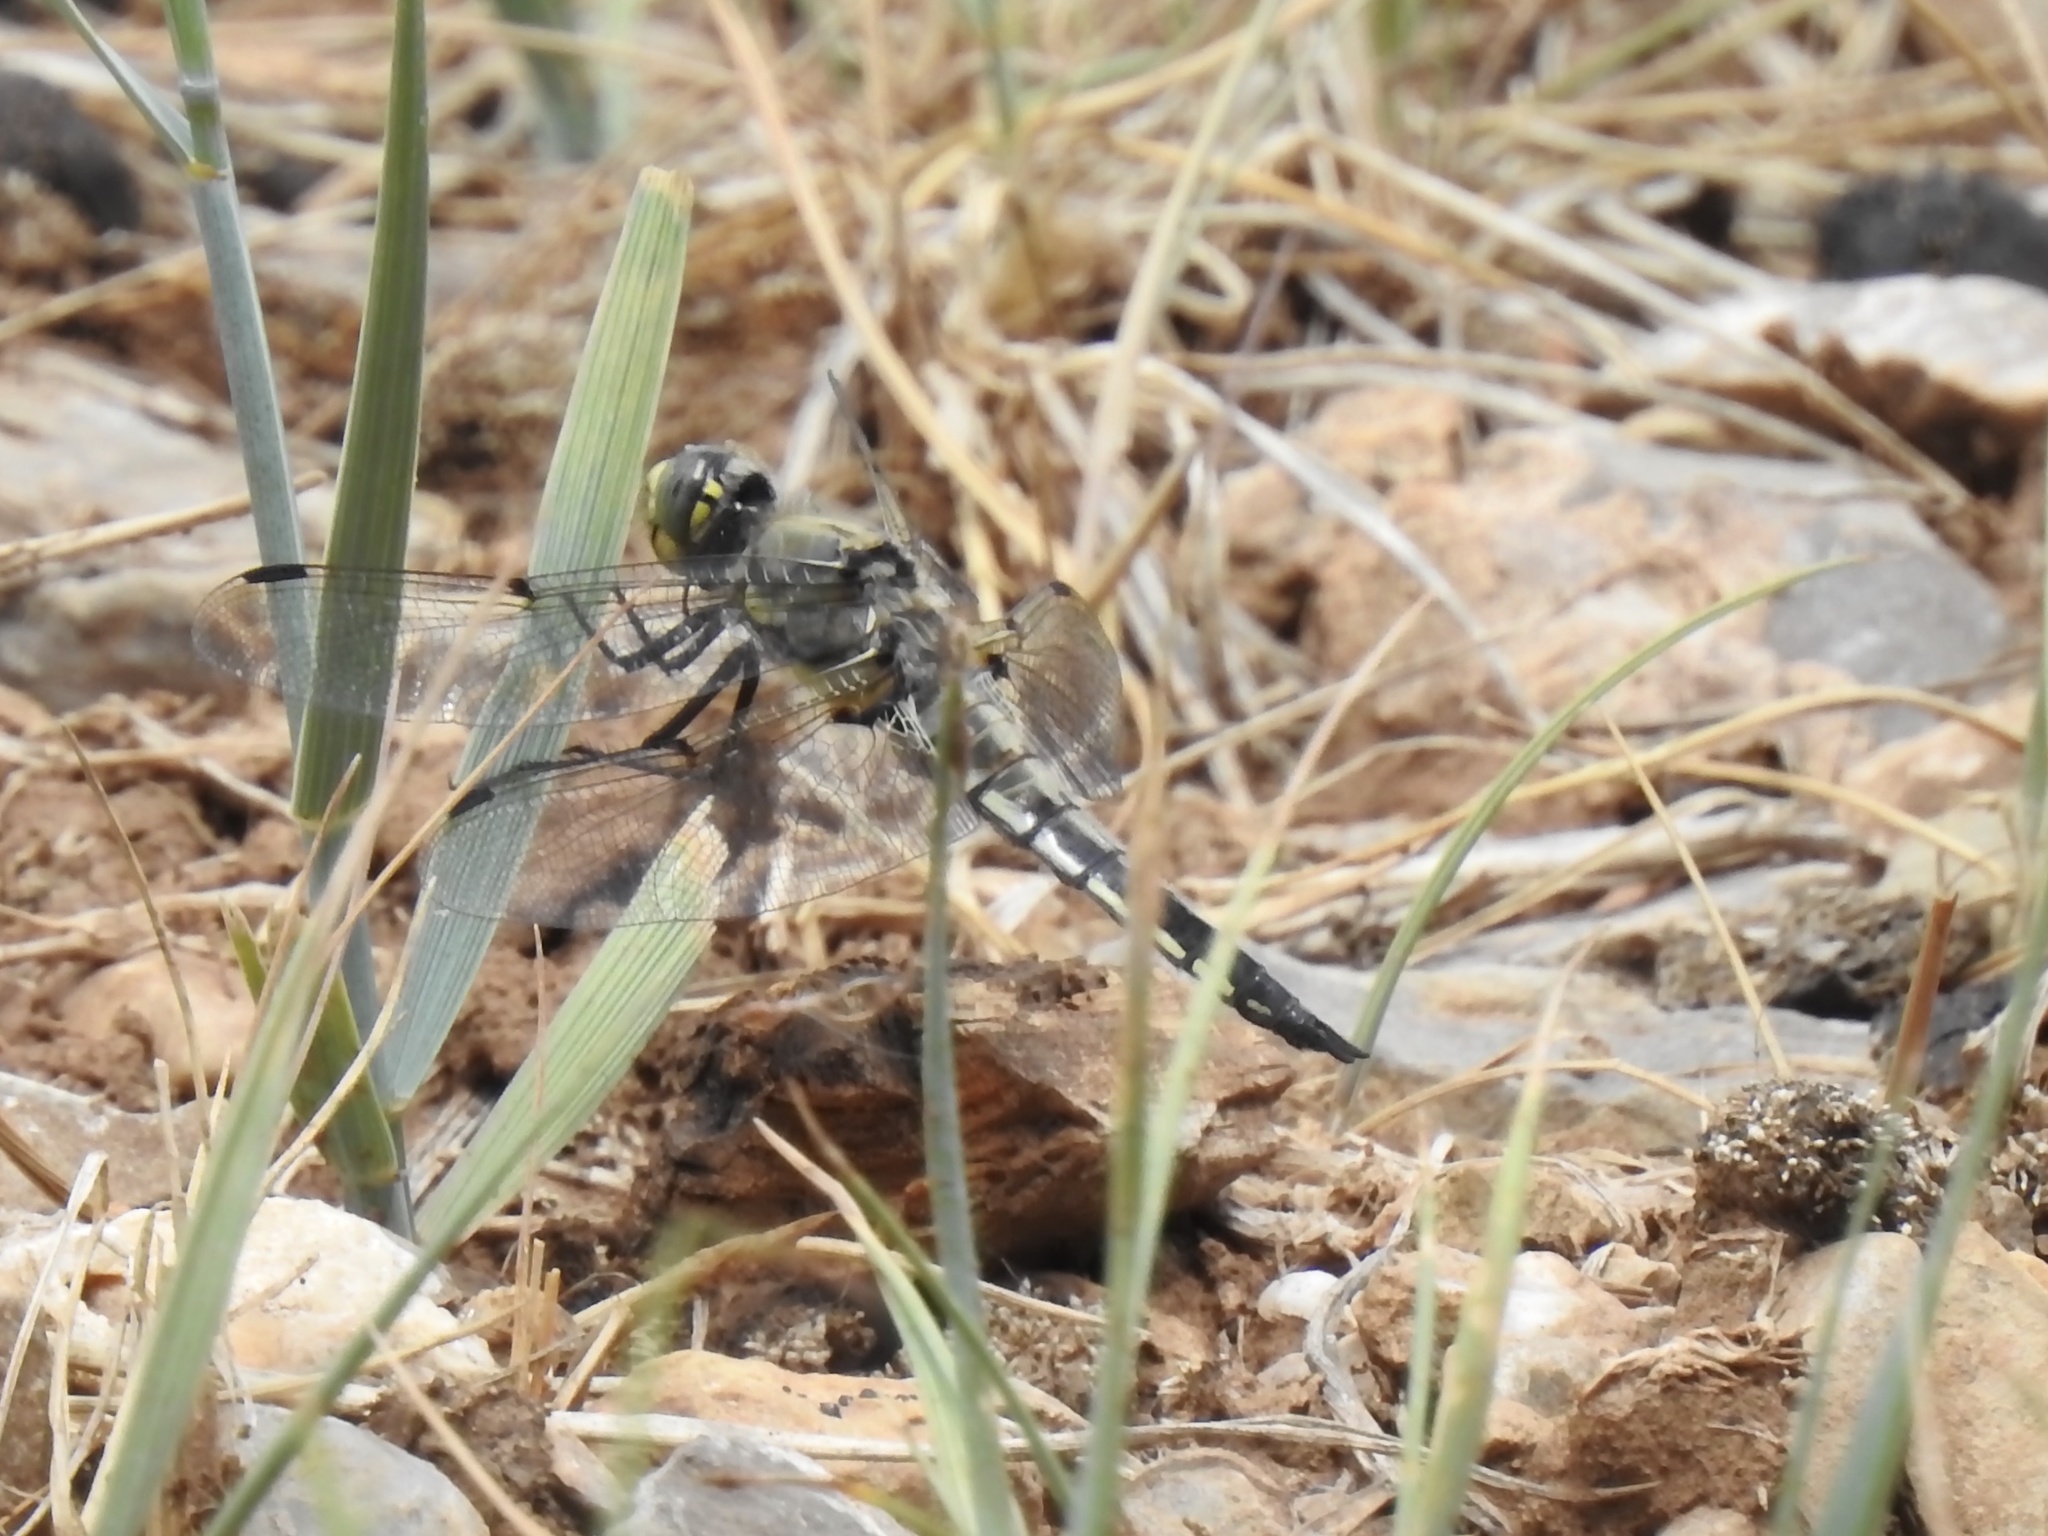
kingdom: Animalia
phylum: Arthropoda
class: Insecta
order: Odonata
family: Libellulidae
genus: Libellula
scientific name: Libellula quadrimaculata
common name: Four-spotted chaser
